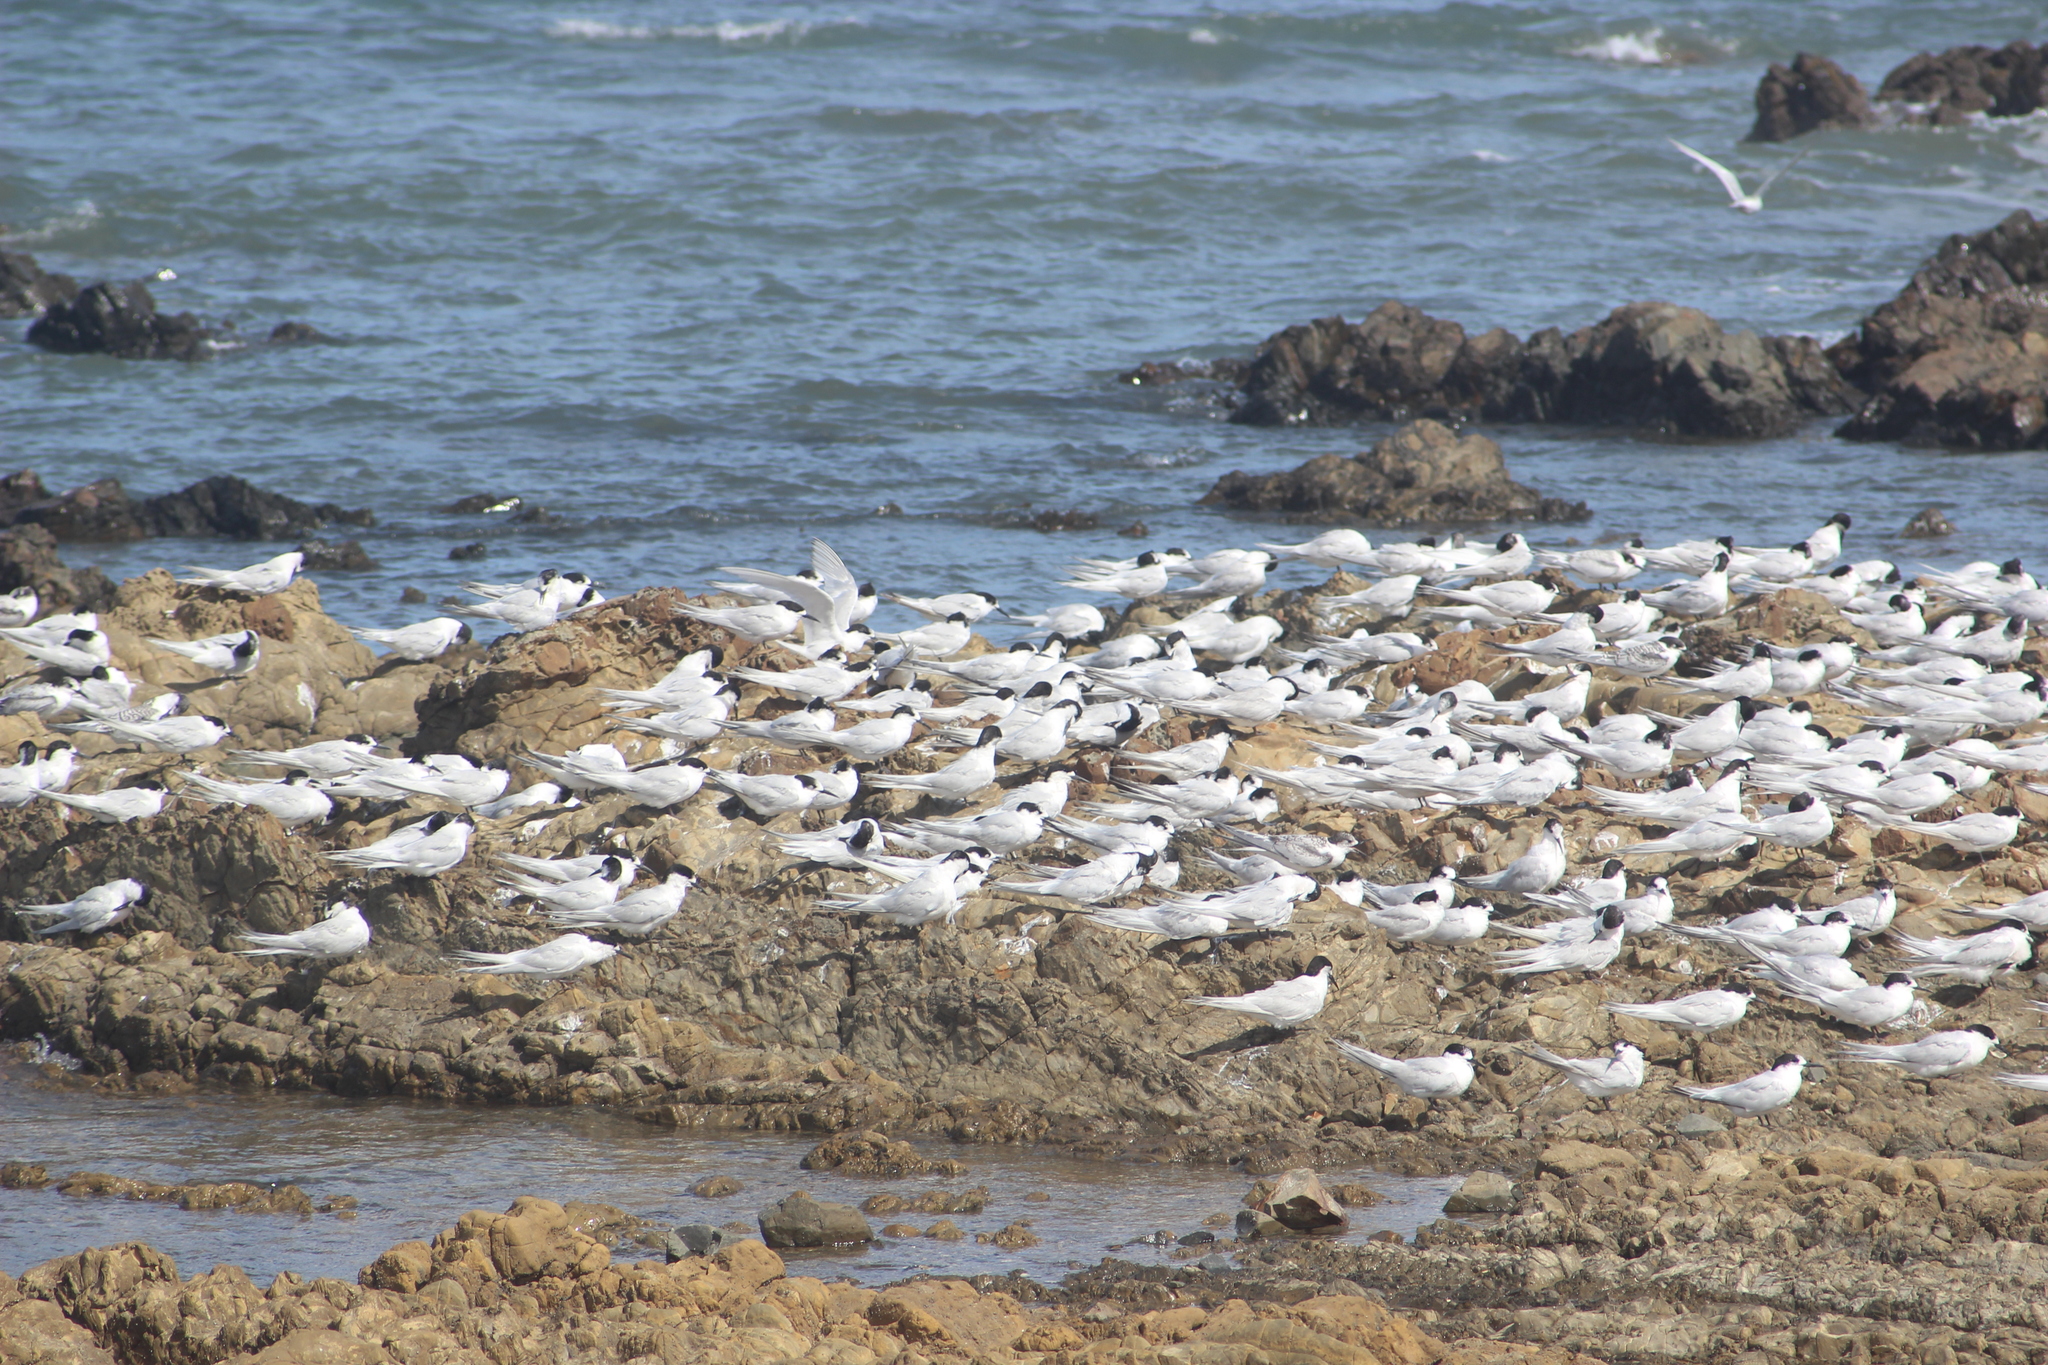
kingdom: Animalia
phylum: Chordata
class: Aves
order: Charadriiformes
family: Laridae
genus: Sterna
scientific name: Sterna striata
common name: White-fronted tern
